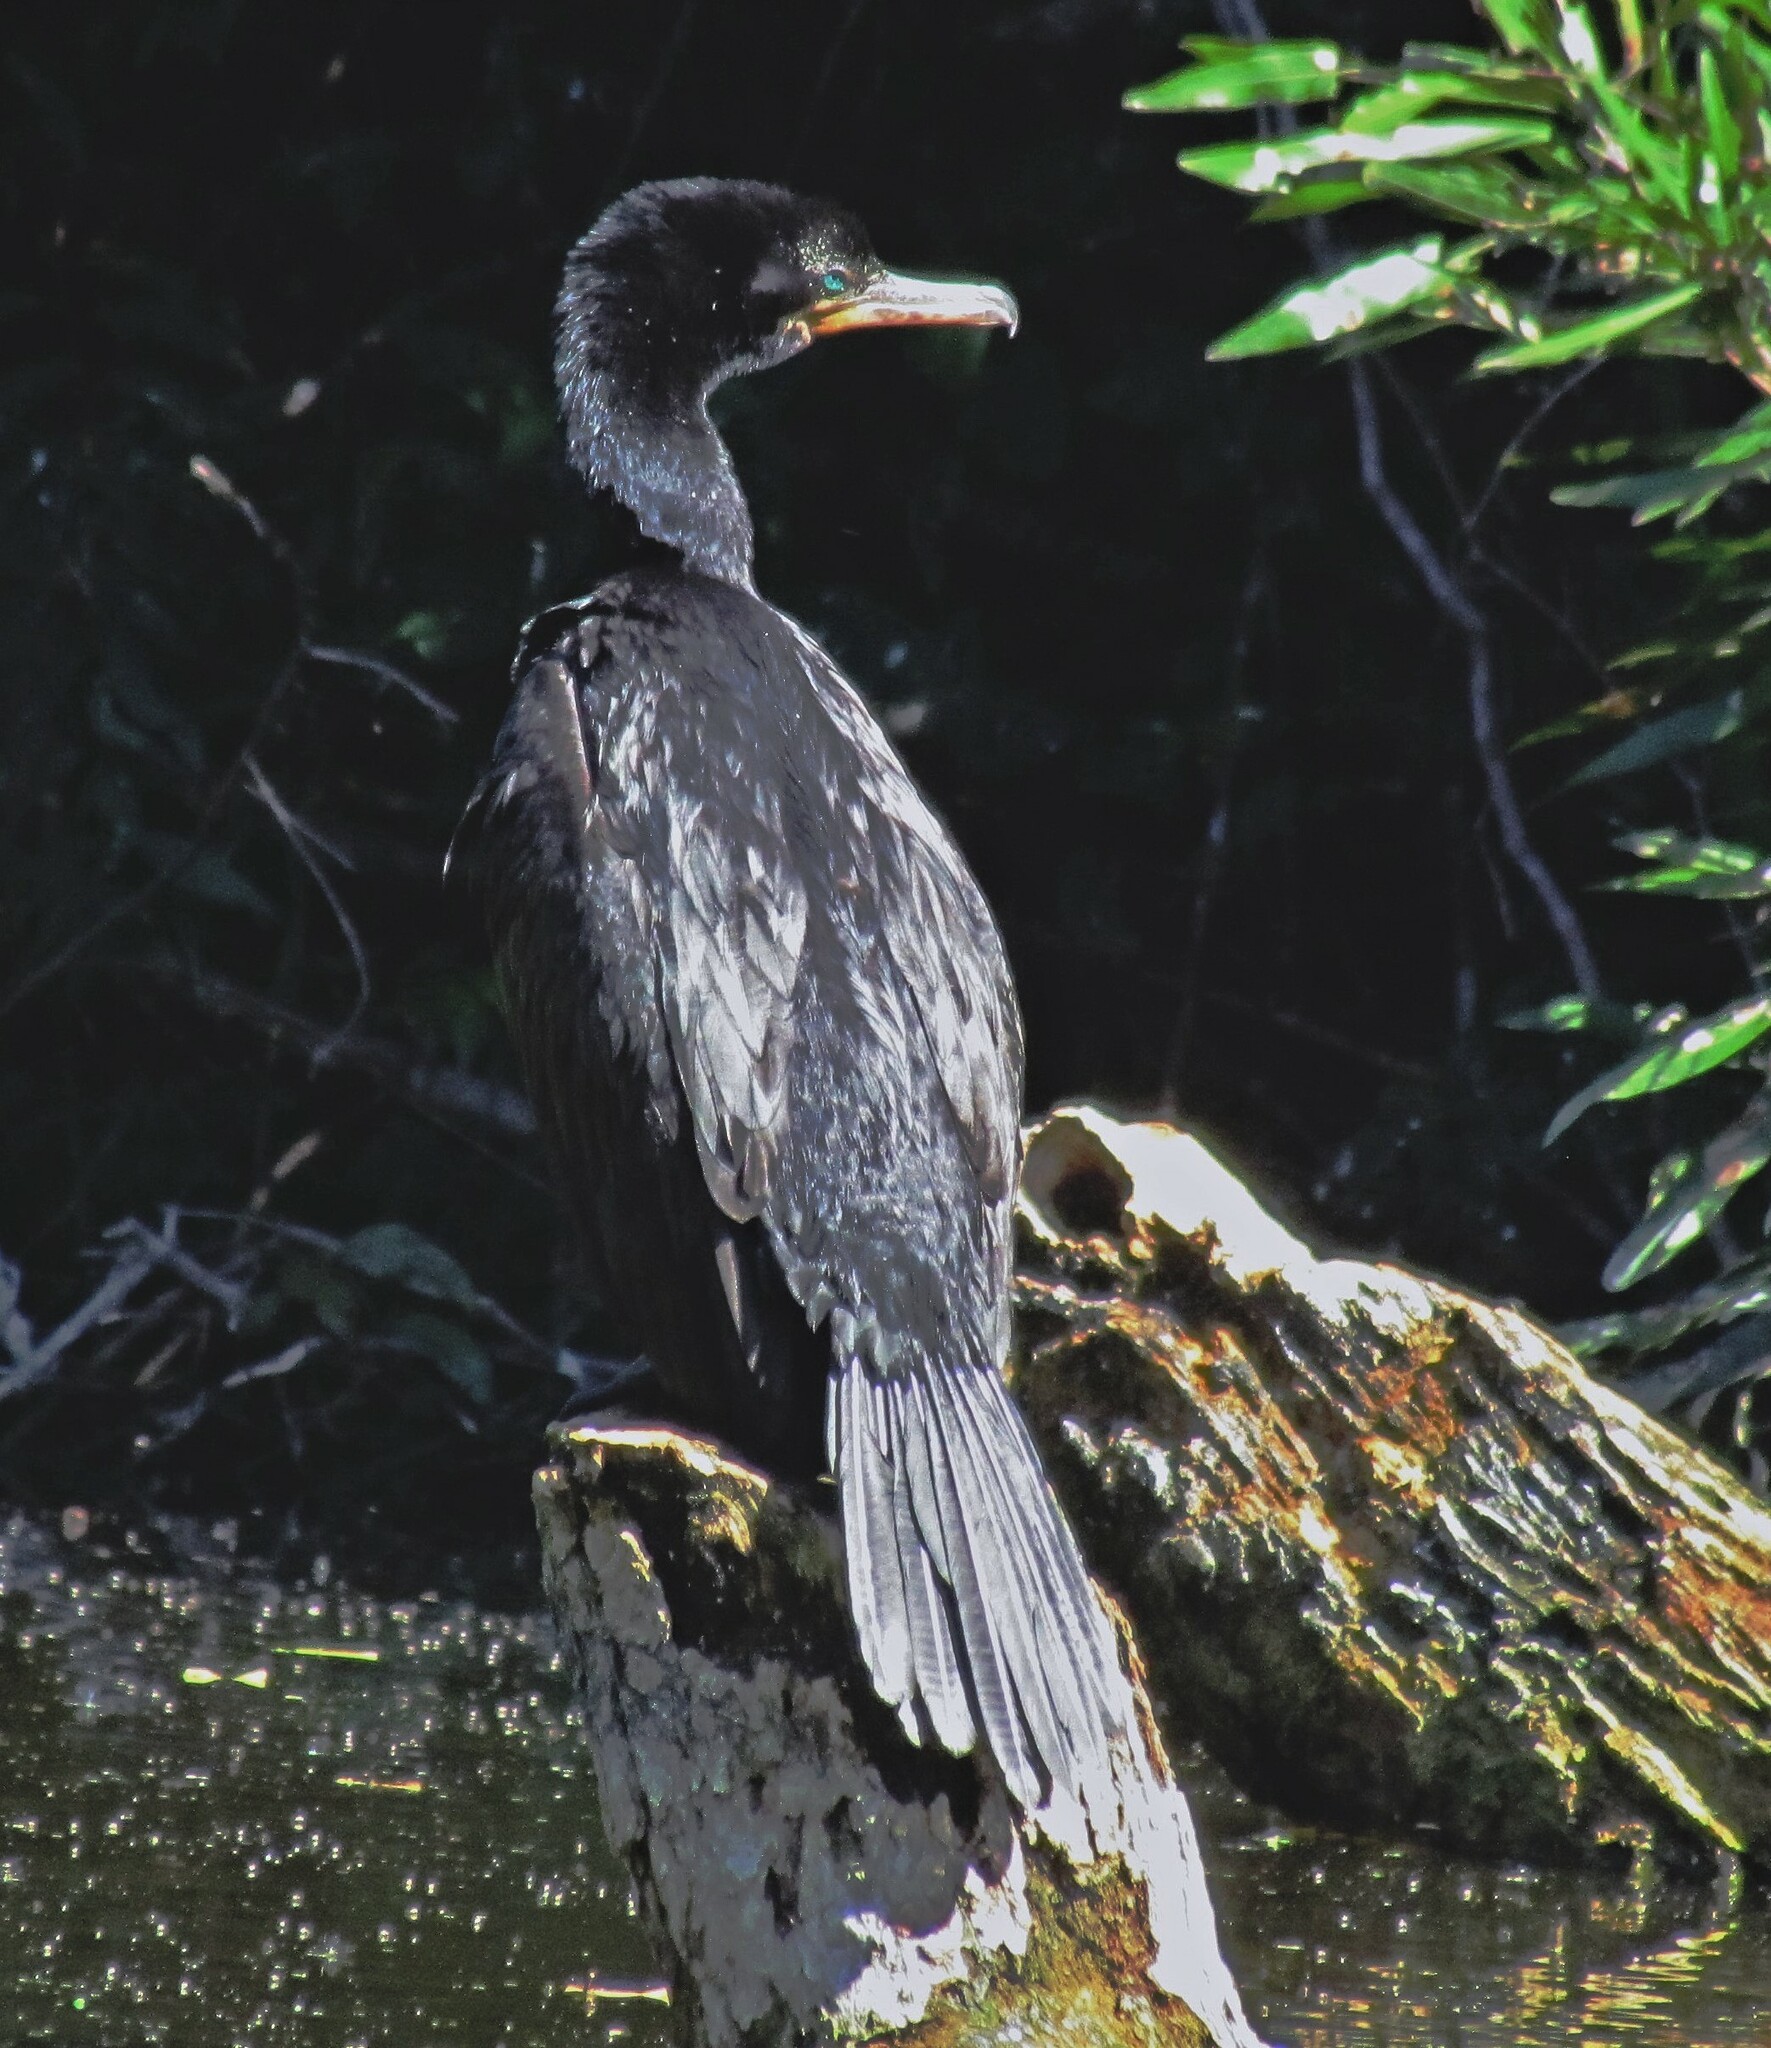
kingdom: Animalia
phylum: Chordata
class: Aves
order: Suliformes
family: Phalacrocoracidae
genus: Phalacrocorax
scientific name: Phalacrocorax brasilianus
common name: Neotropic cormorant
